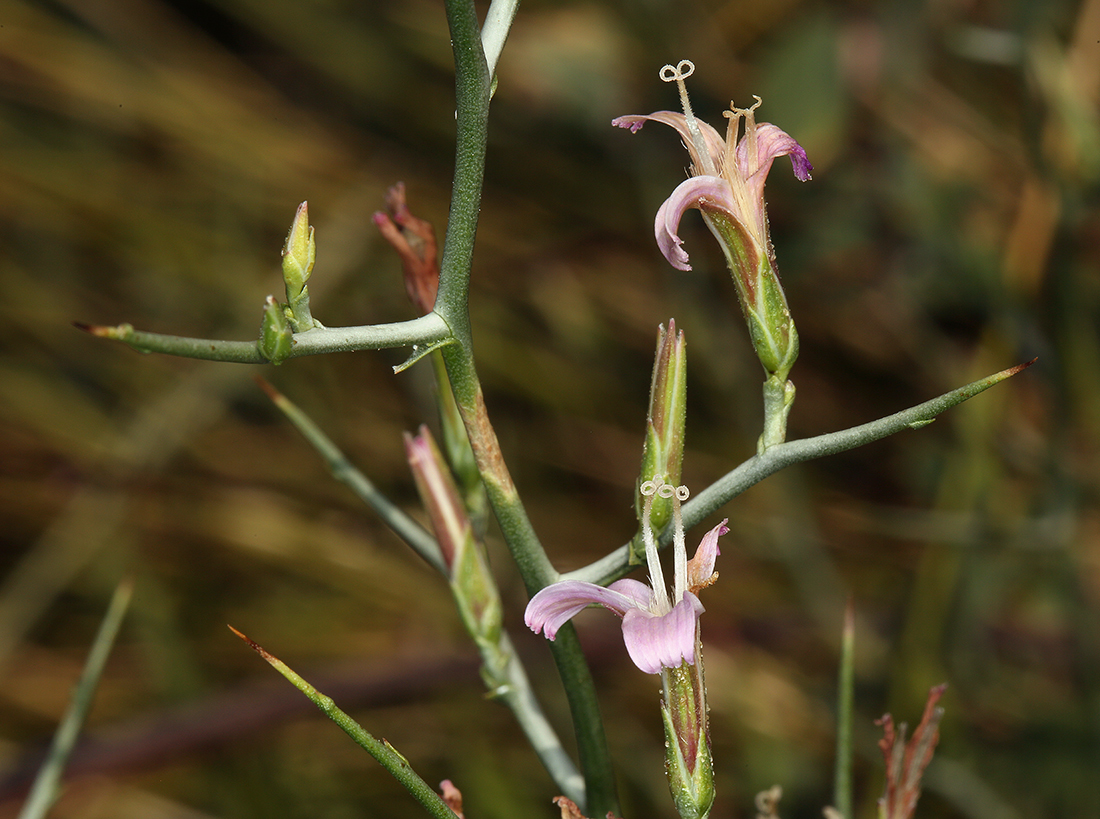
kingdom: Plantae
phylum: Tracheophyta
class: Magnoliopsida
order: Asterales
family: Asteraceae
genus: Pleiacanthus
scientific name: Pleiacanthus spinosus
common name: Thorny skeleton-weed
